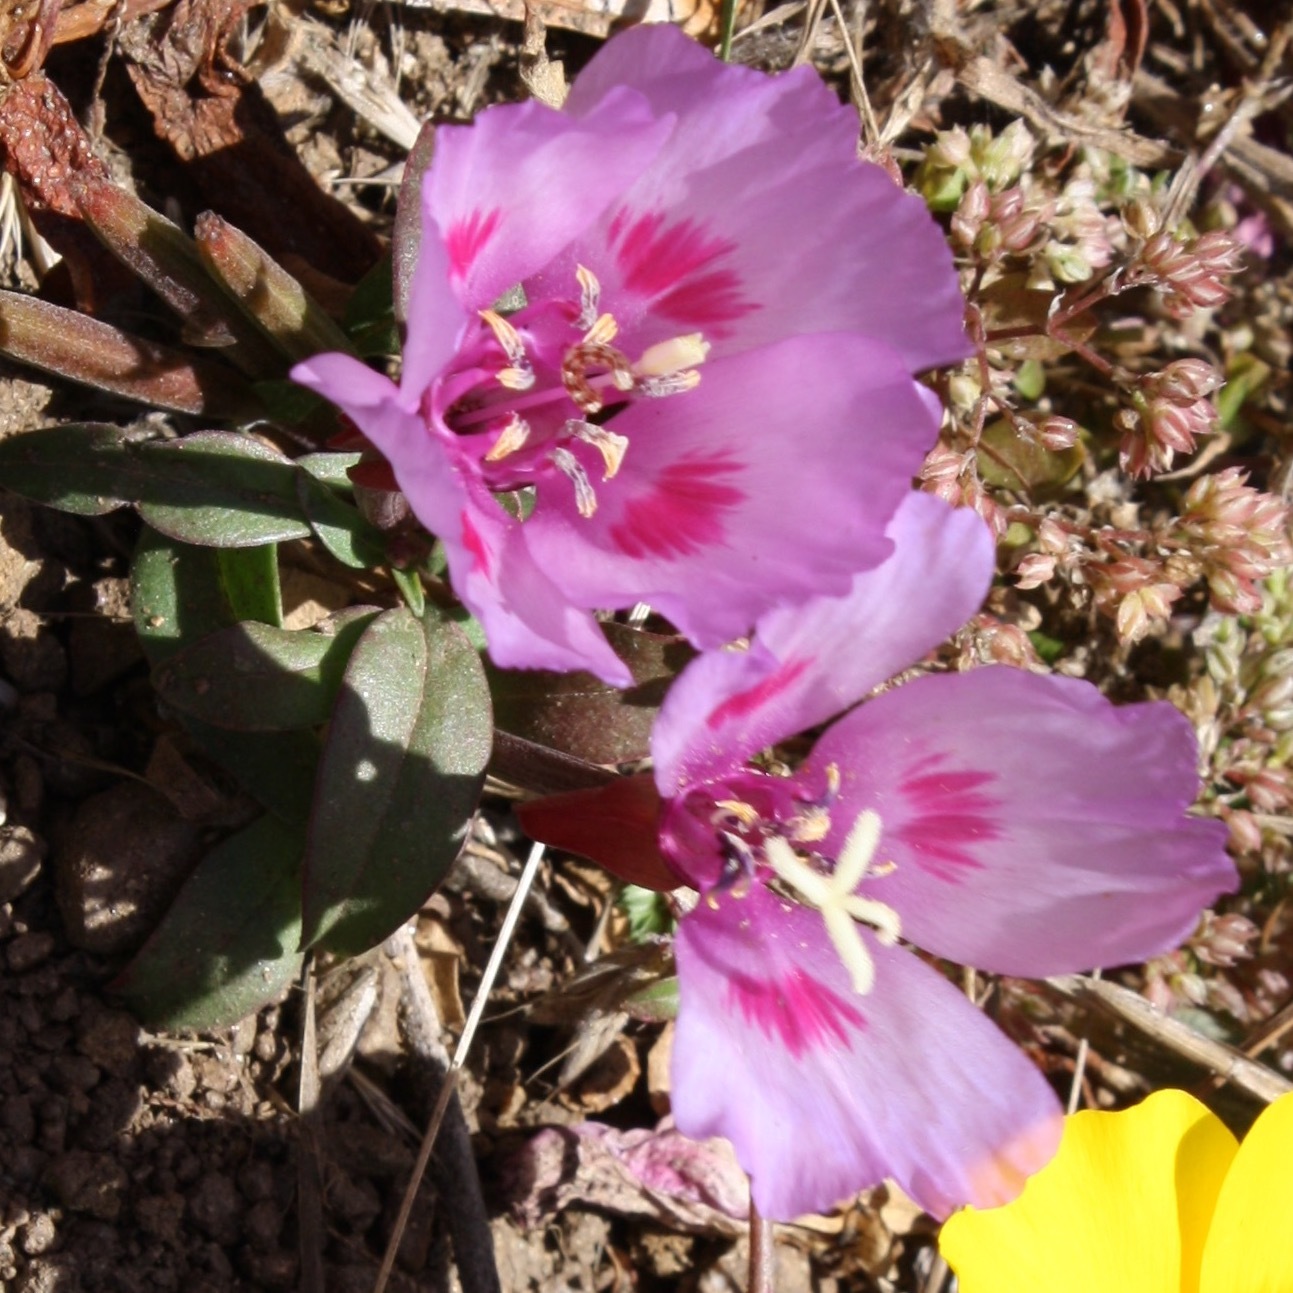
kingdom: Plantae
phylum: Tracheophyta
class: Magnoliopsida
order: Myrtales
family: Onagraceae
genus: Clarkia
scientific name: Clarkia amoena
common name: Godetia
